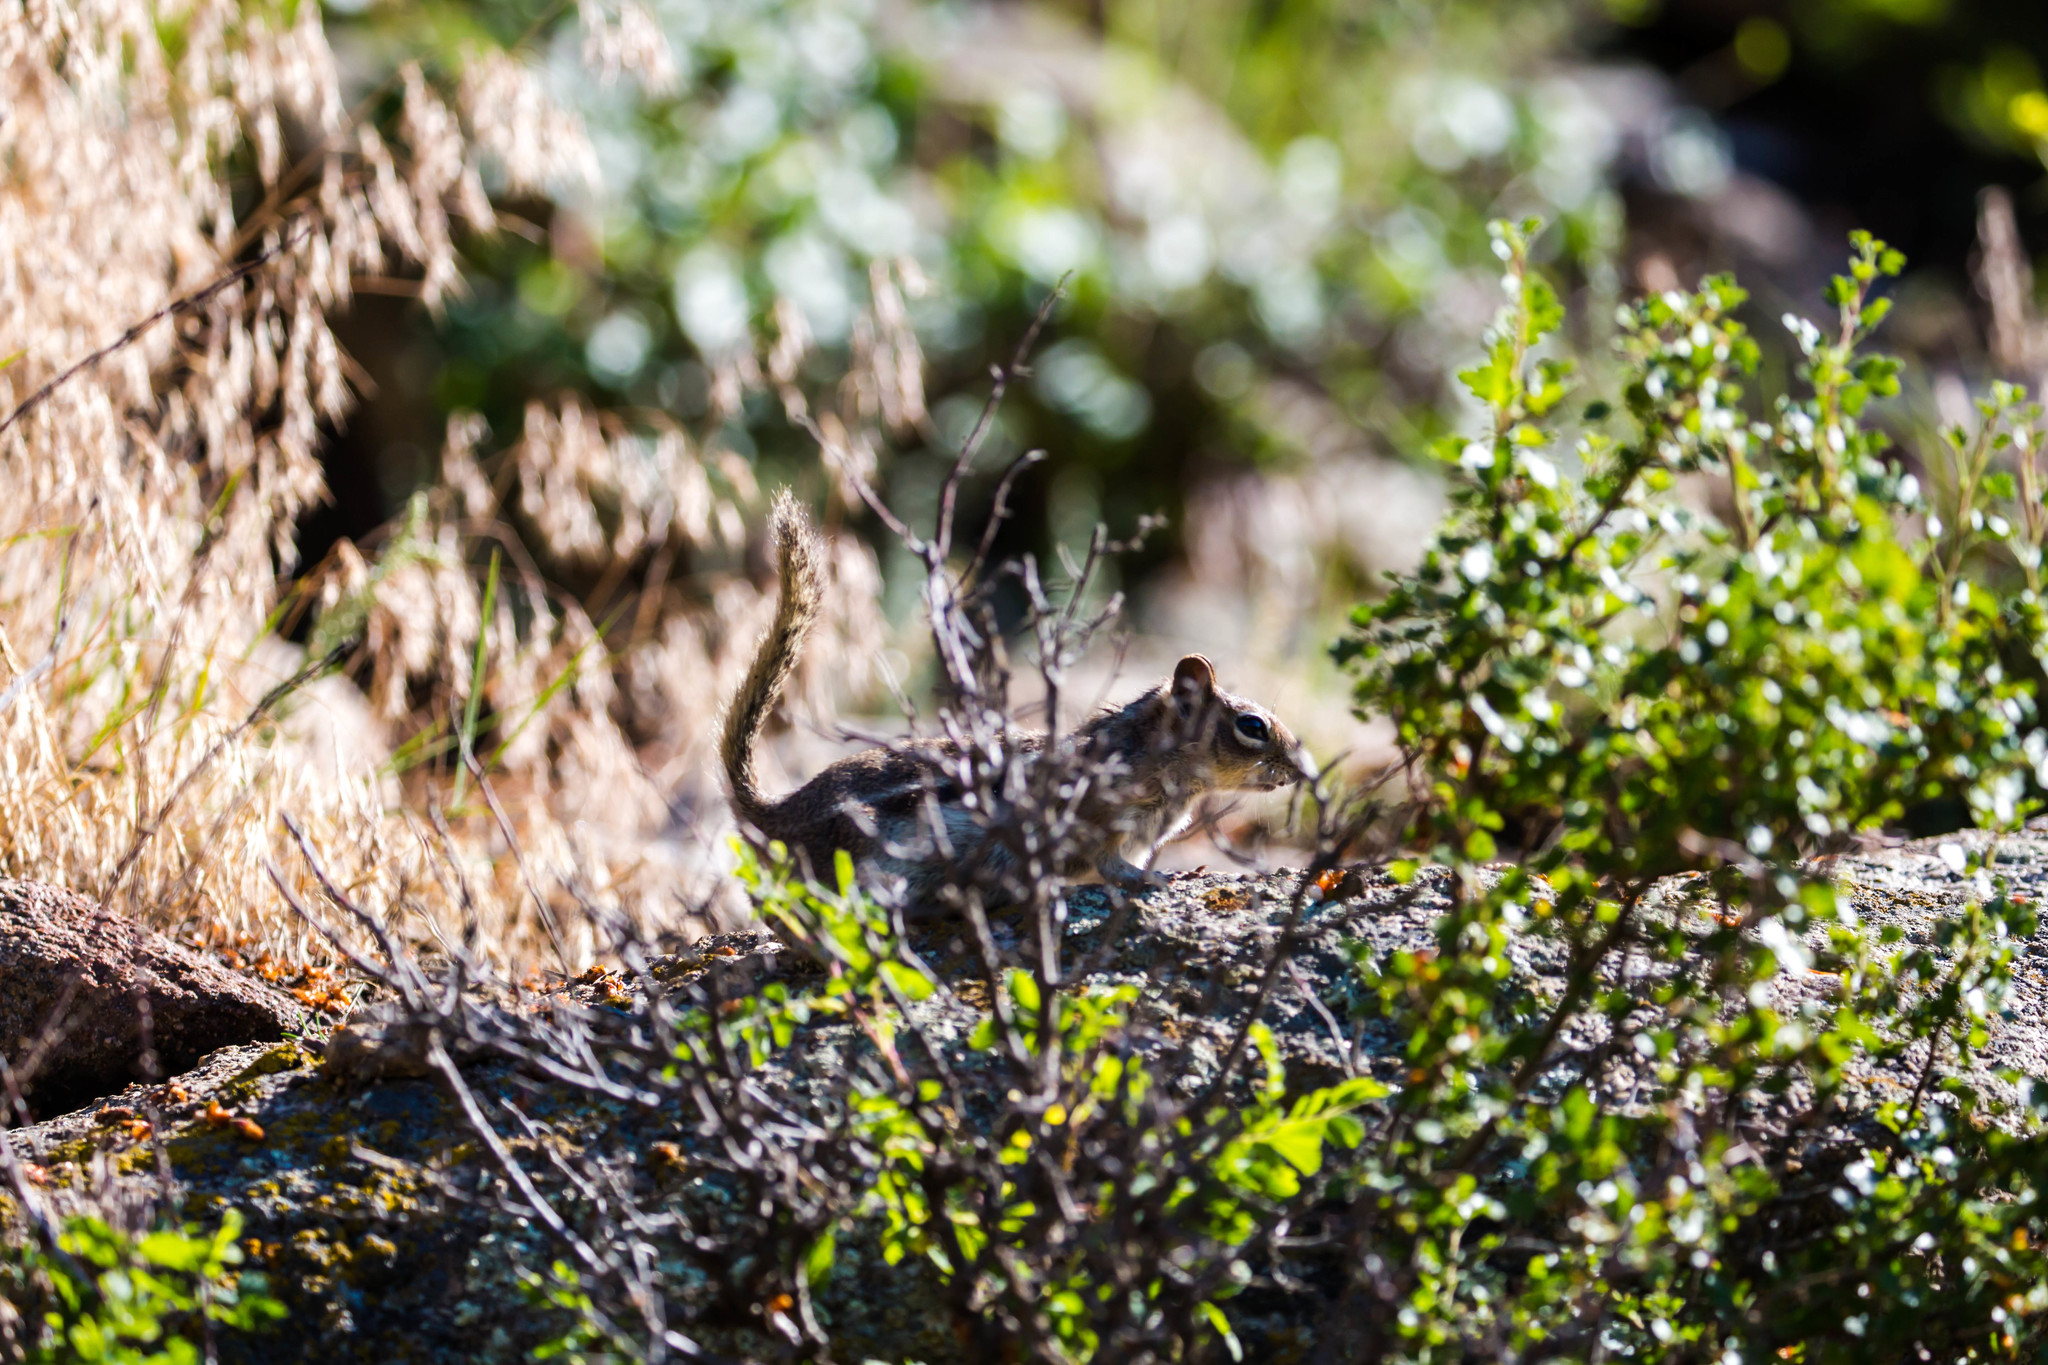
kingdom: Animalia
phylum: Chordata
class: Mammalia
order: Rodentia
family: Sciuridae
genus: Callospermophilus
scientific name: Callospermophilus lateralis
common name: Golden-mantled ground squirrel
